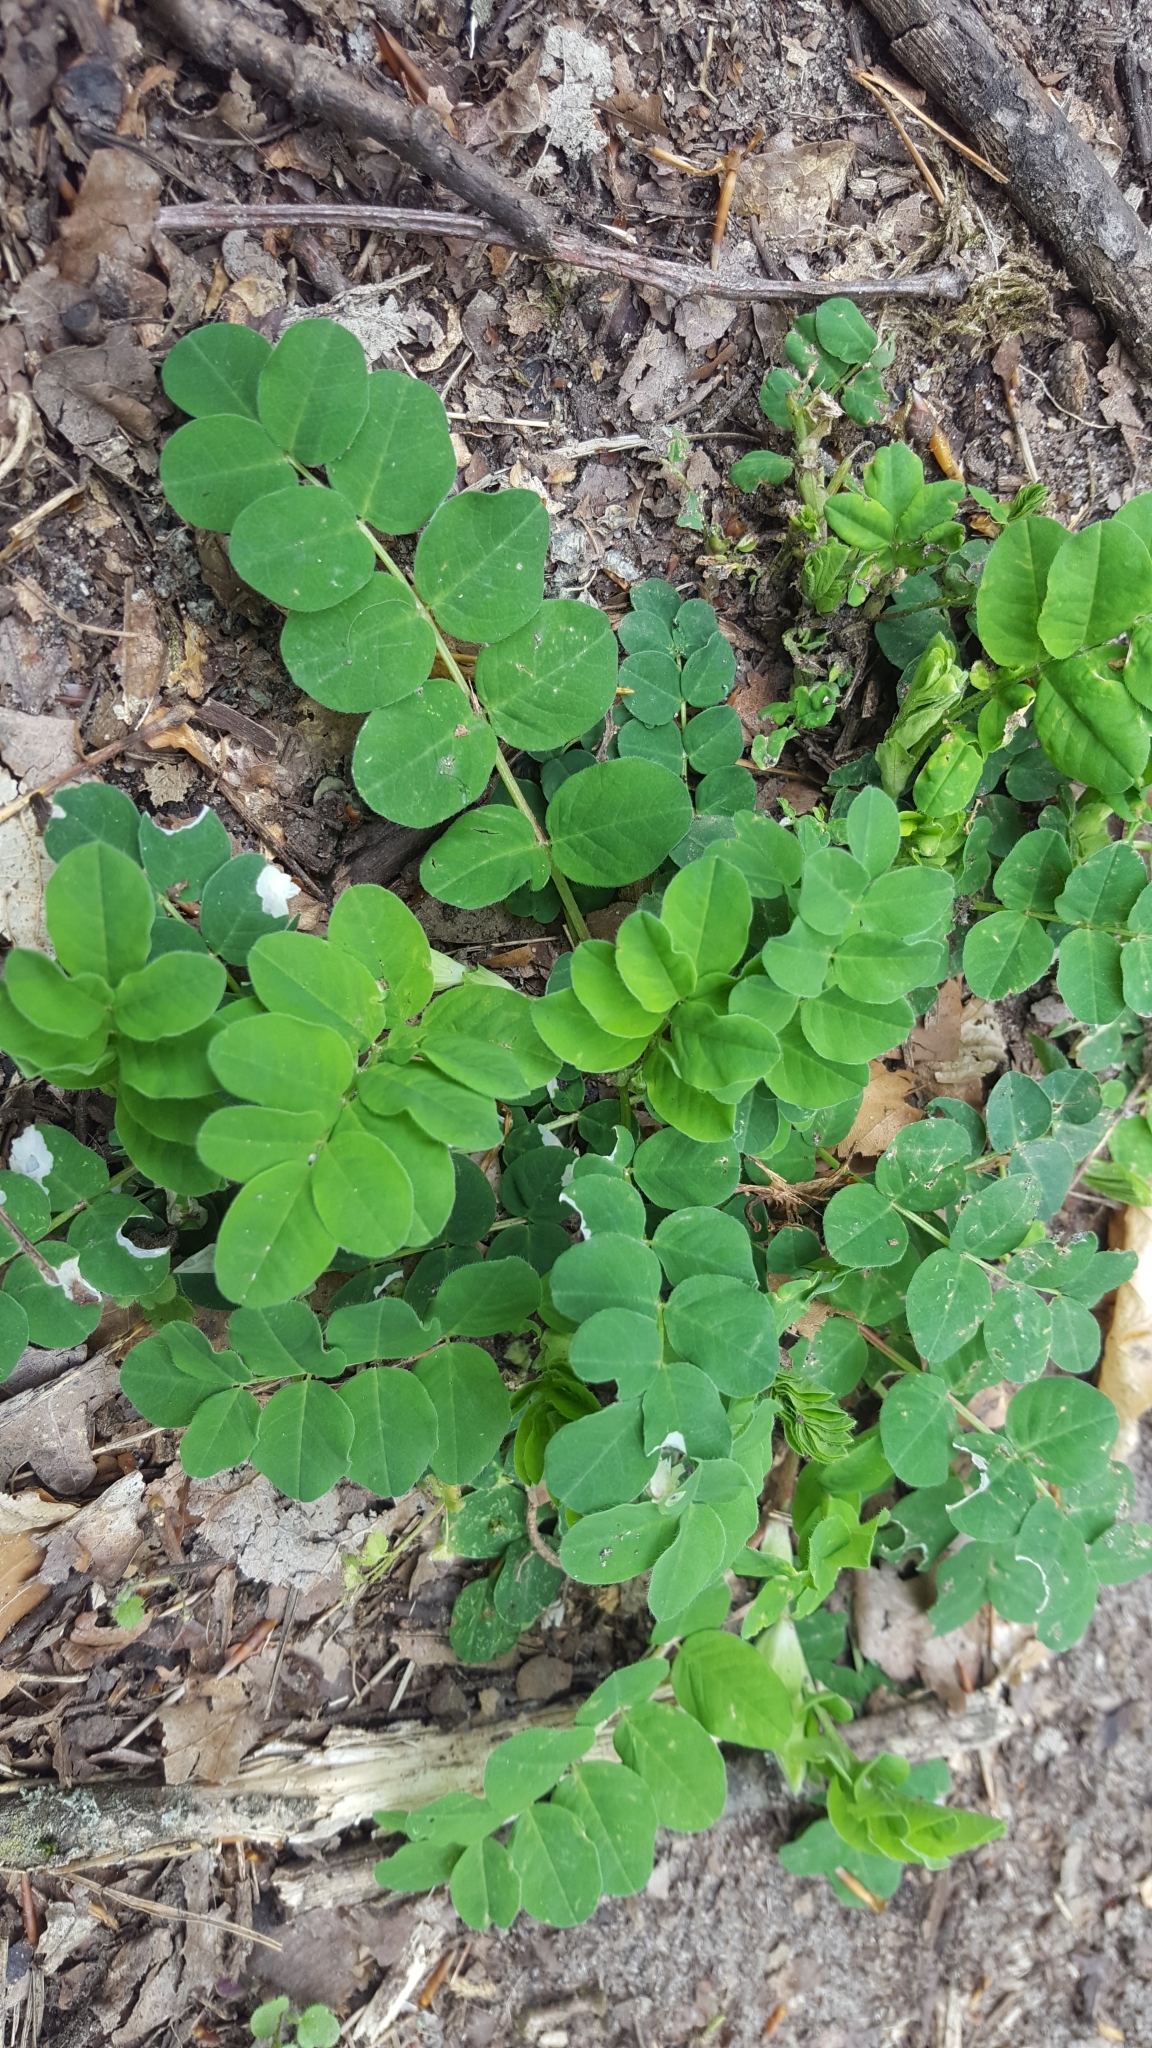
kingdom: Plantae
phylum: Tracheophyta
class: Magnoliopsida
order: Fabales
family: Fabaceae
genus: Astragalus
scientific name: Astragalus glycyphyllos
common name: Wild liquorice
